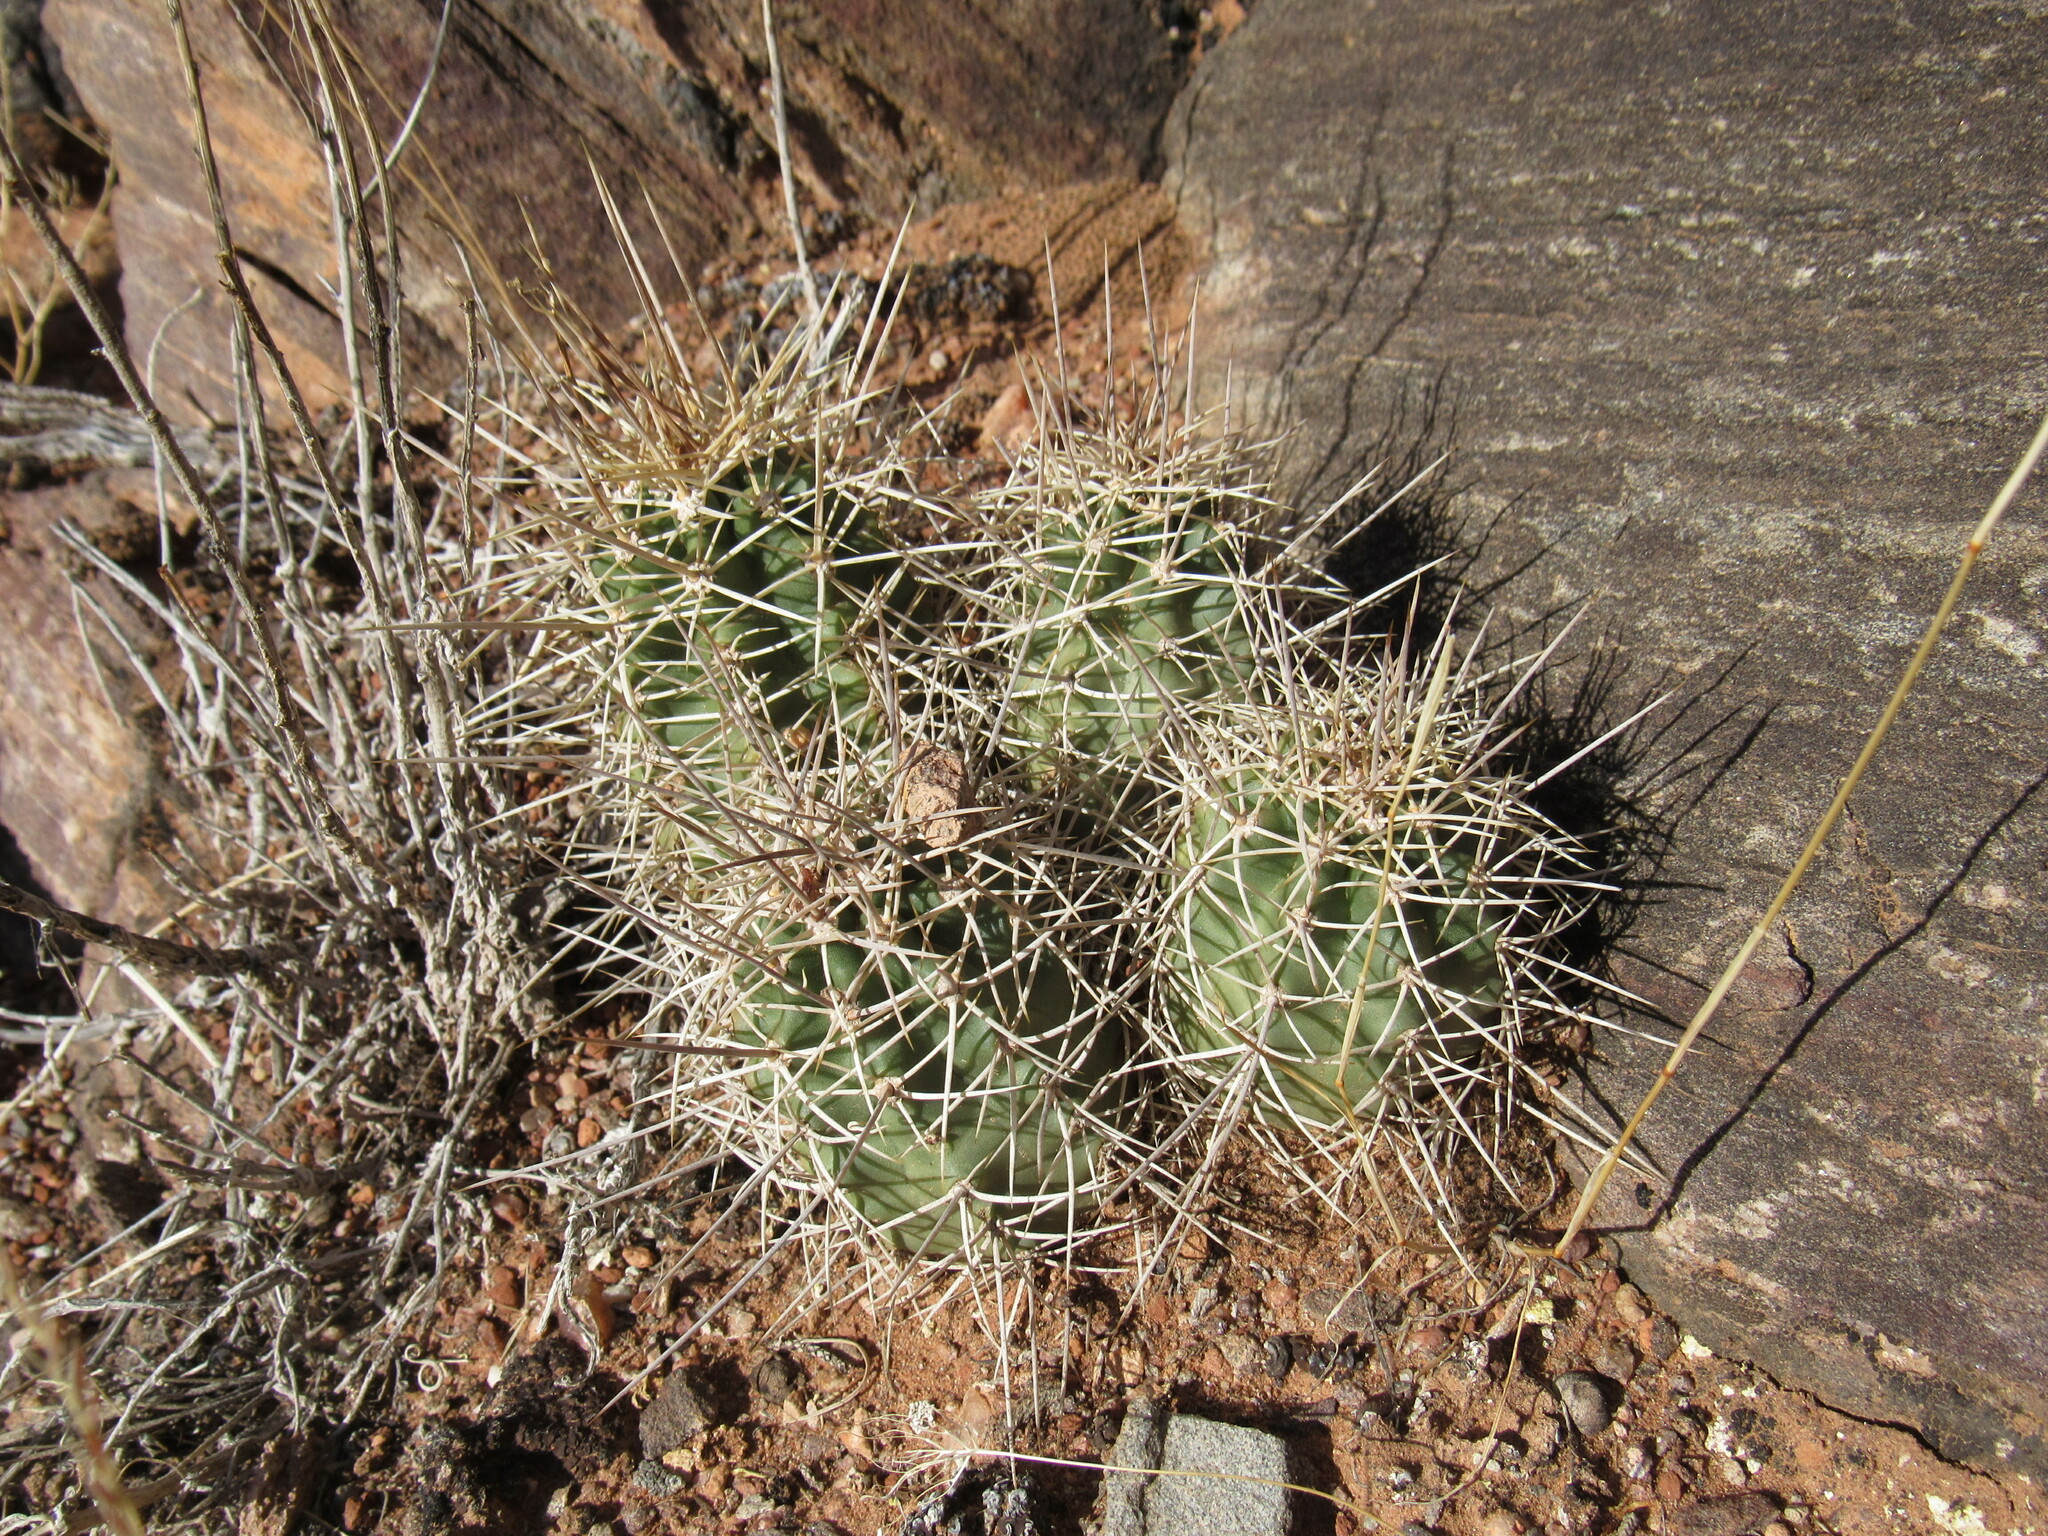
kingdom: Plantae
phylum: Tracheophyta
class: Magnoliopsida
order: Caryophyllales
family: Cactaceae
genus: Echinocereus
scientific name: Echinocereus triglochidiatus
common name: Claretcup hedgehog
